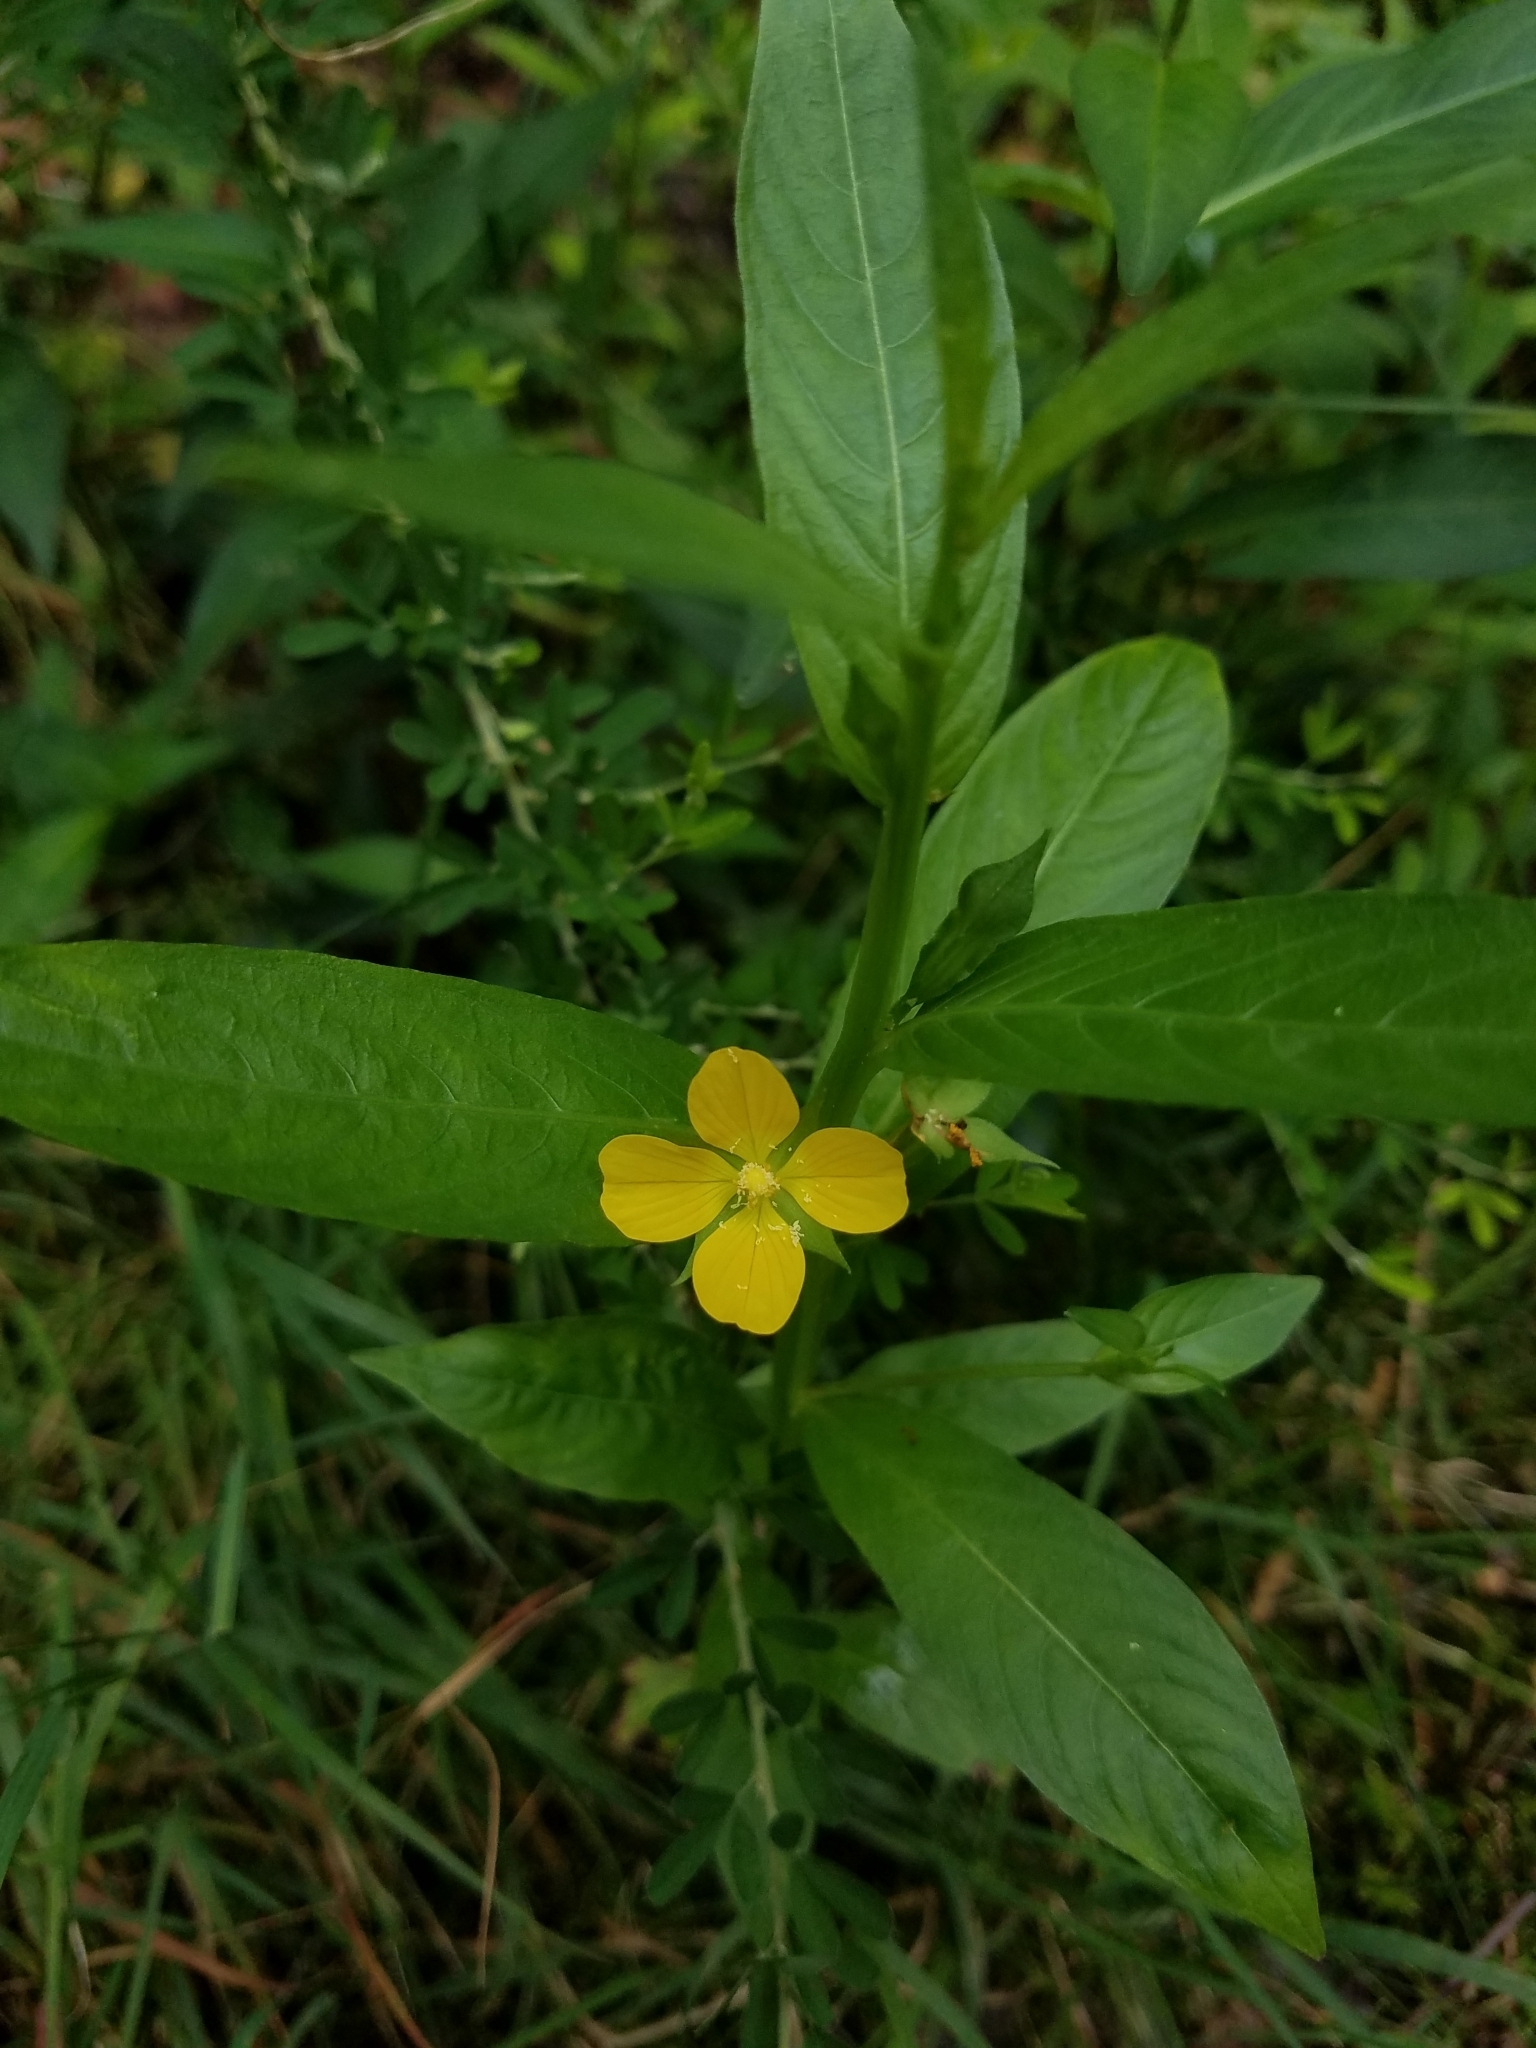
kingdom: Plantae
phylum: Tracheophyta
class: Magnoliopsida
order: Myrtales
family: Onagraceae
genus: Ludwigia
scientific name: Ludwigia decurrens
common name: Winged water-primrose
